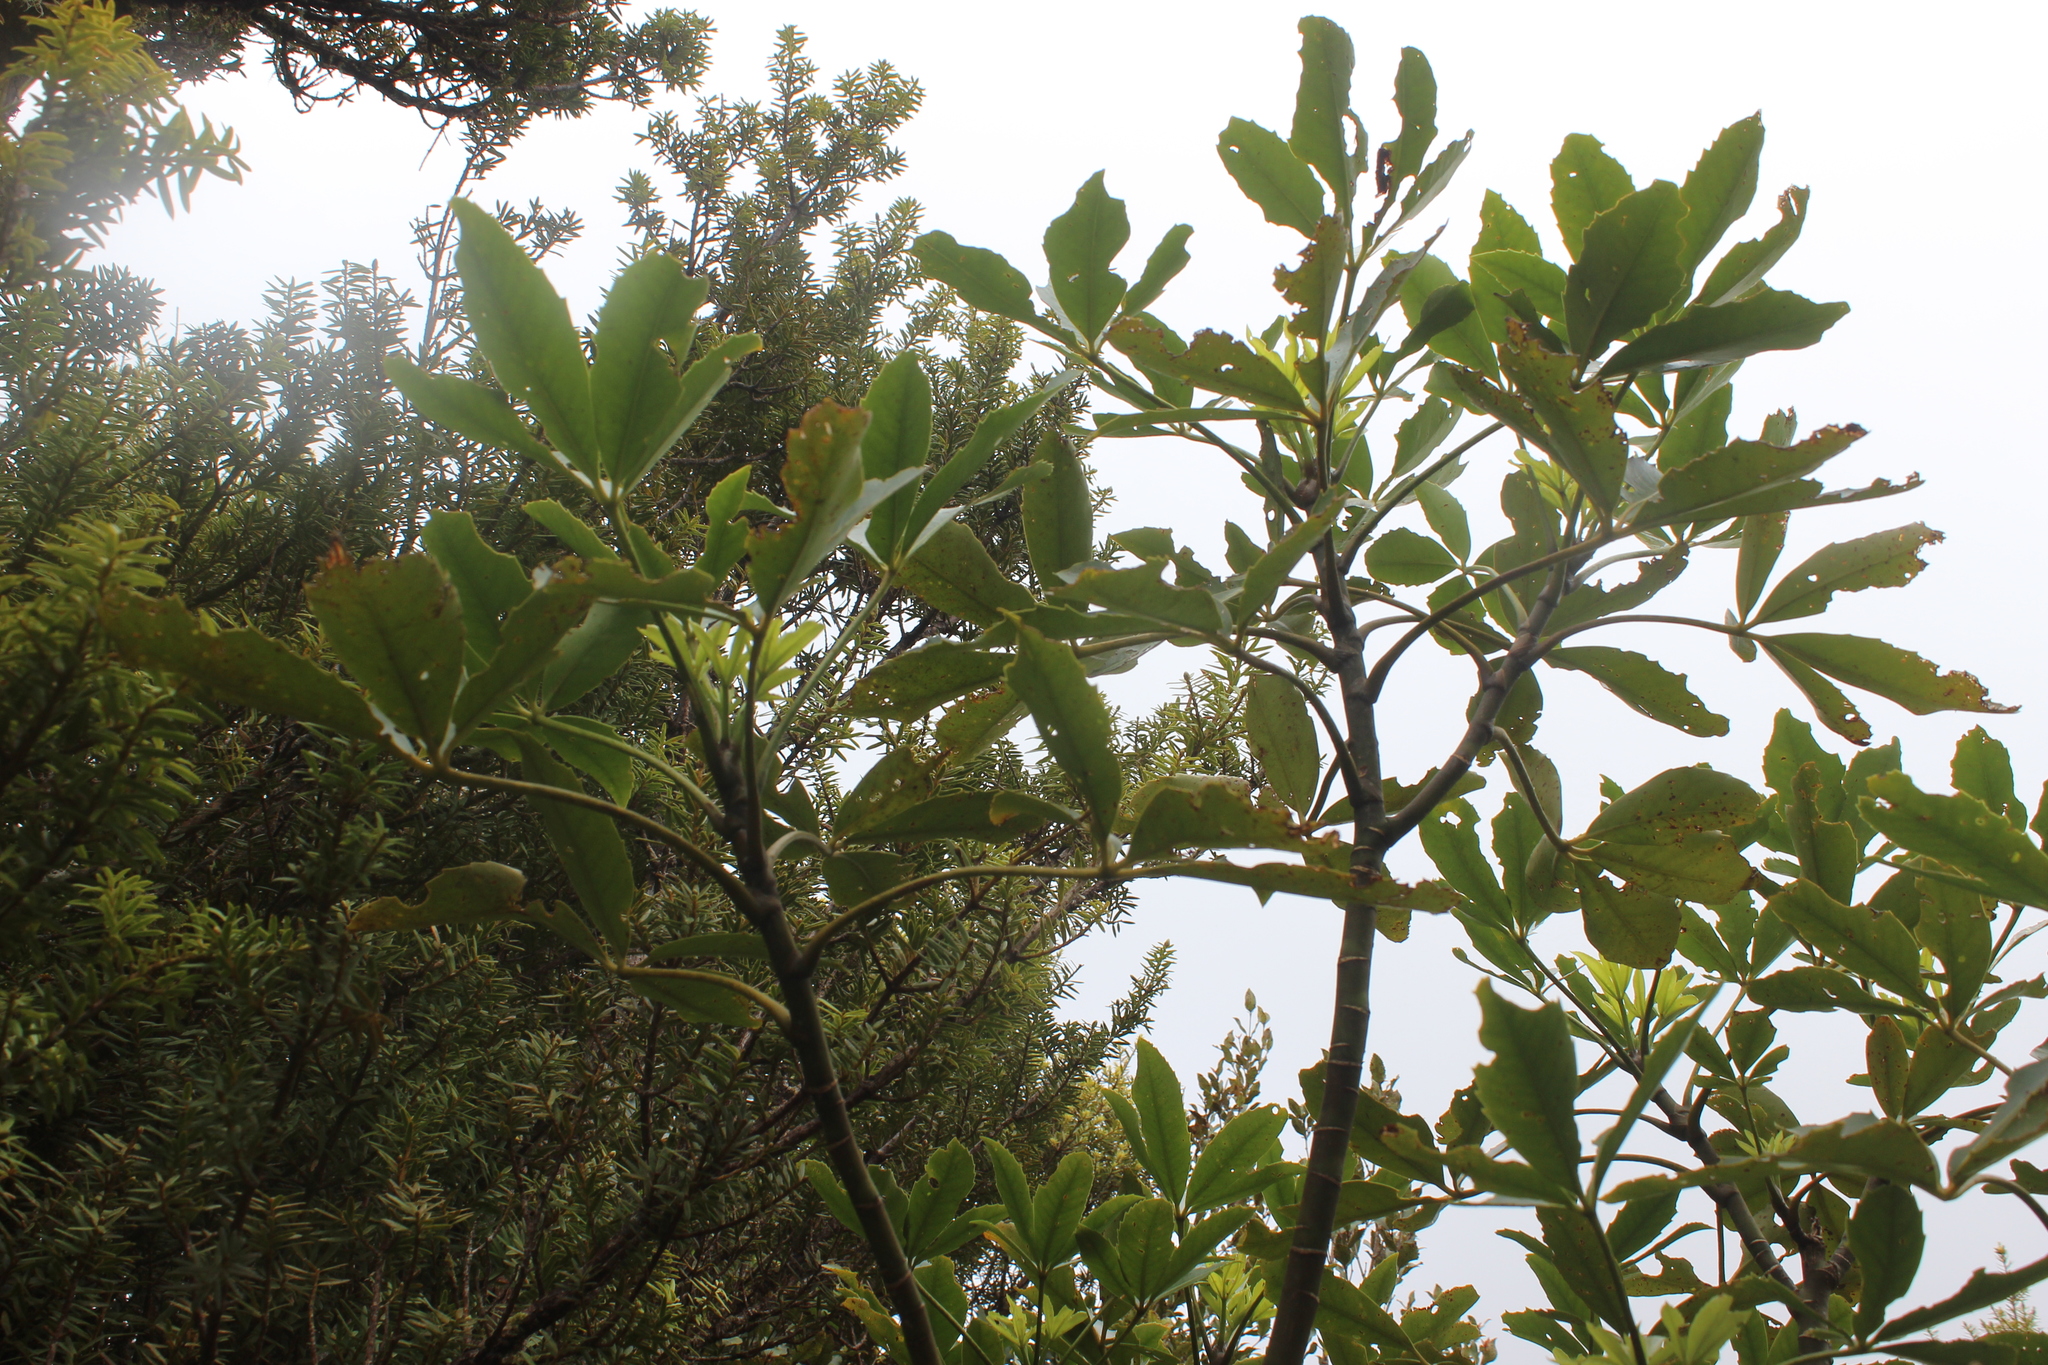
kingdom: Plantae
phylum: Tracheophyta
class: Magnoliopsida
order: Apiales
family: Araliaceae
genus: Neopanax
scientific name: Neopanax colensoi
